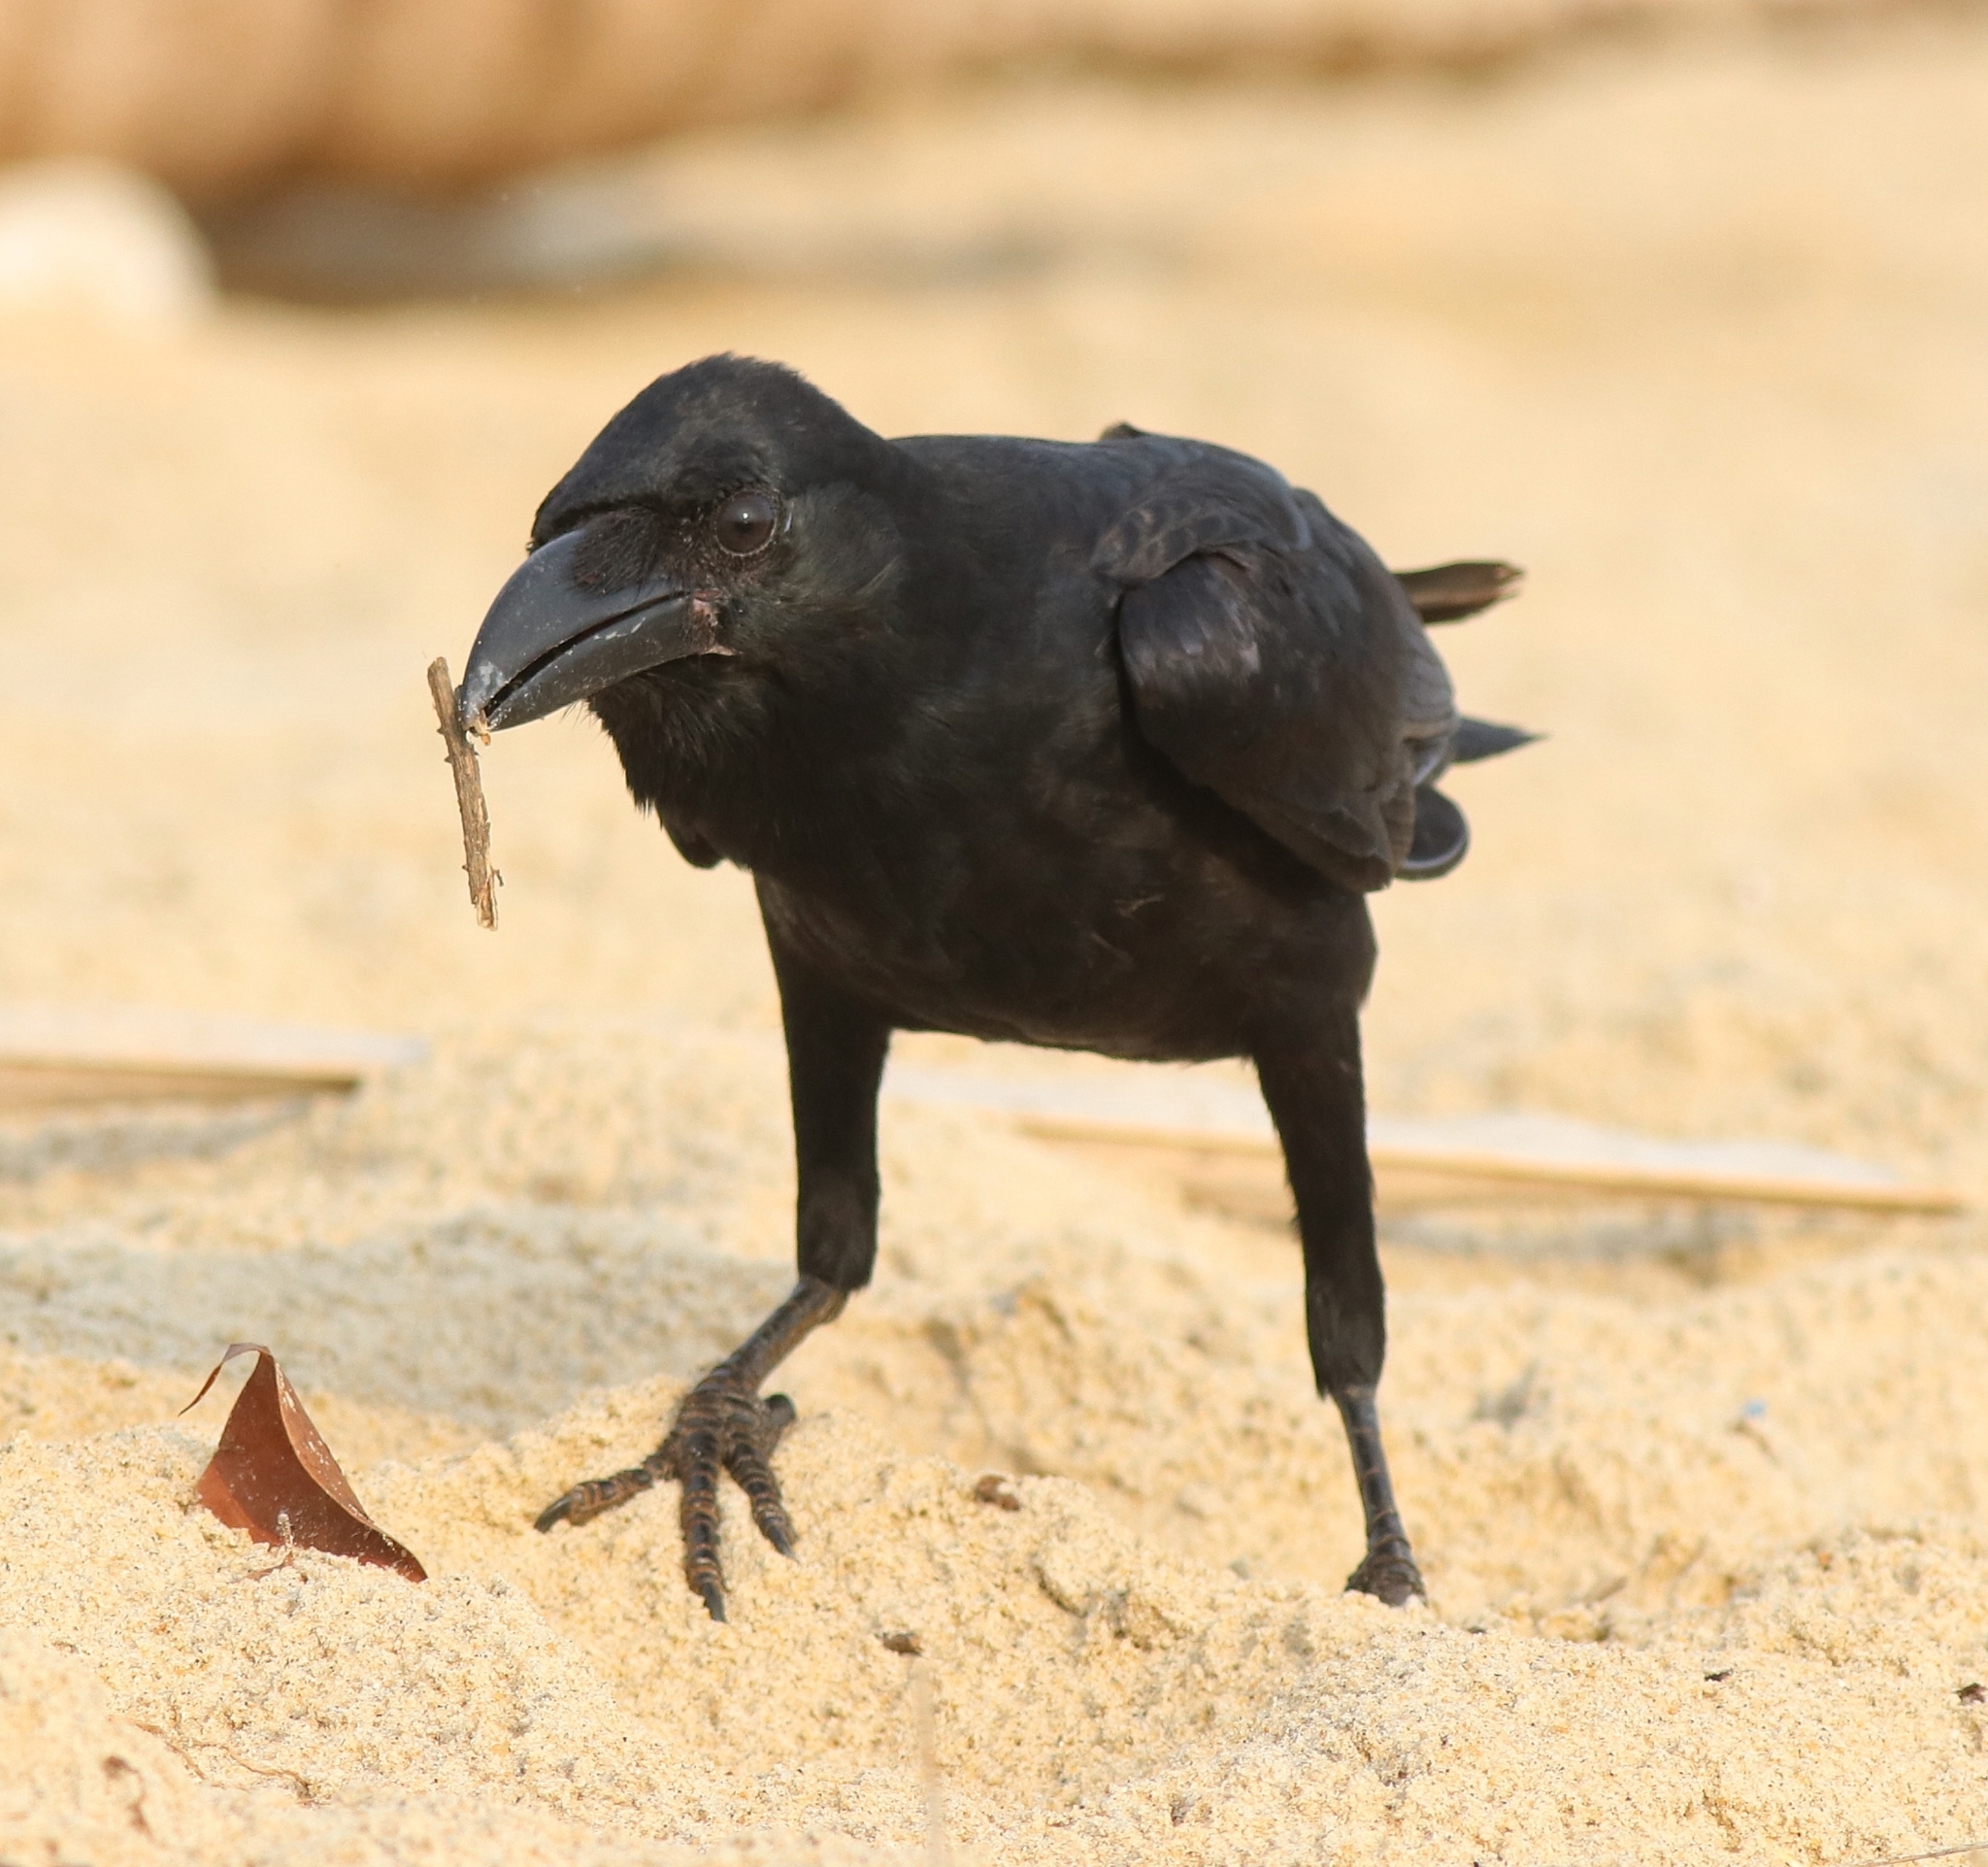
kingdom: Animalia
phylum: Chordata
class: Aves
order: Passeriformes
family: Corvidae
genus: Corvus
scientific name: Corvus macrorhynchos
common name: Large-billed crow
